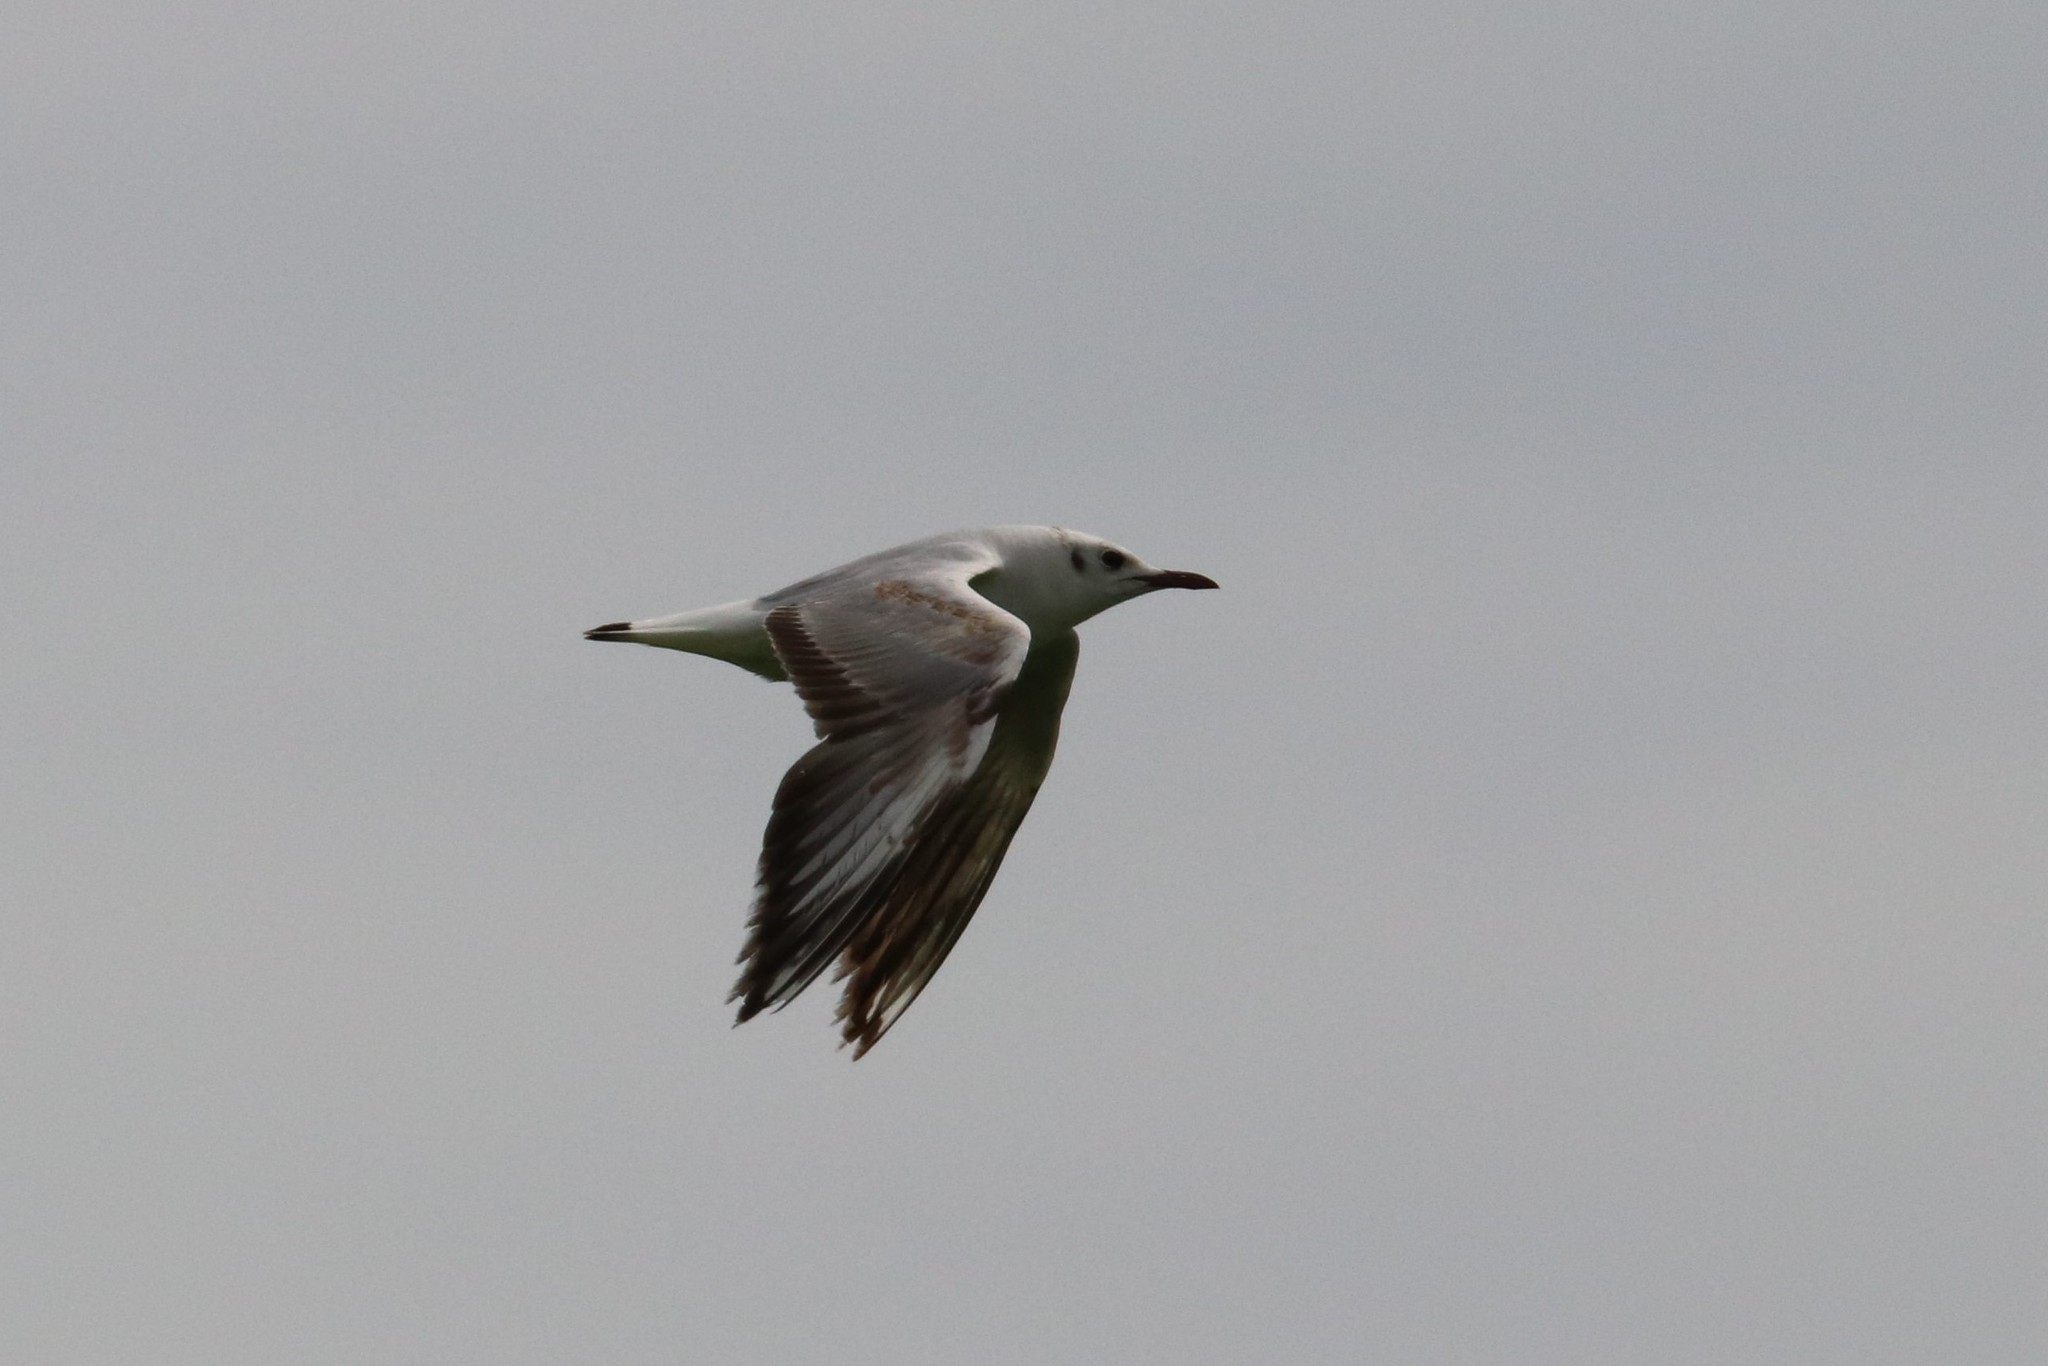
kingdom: Animalia
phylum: Chordata
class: Aves
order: Charadriiformes
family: Laridae
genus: Chroicocephalus
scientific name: Chroicocephalus ridibundus
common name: Black-headed gull
